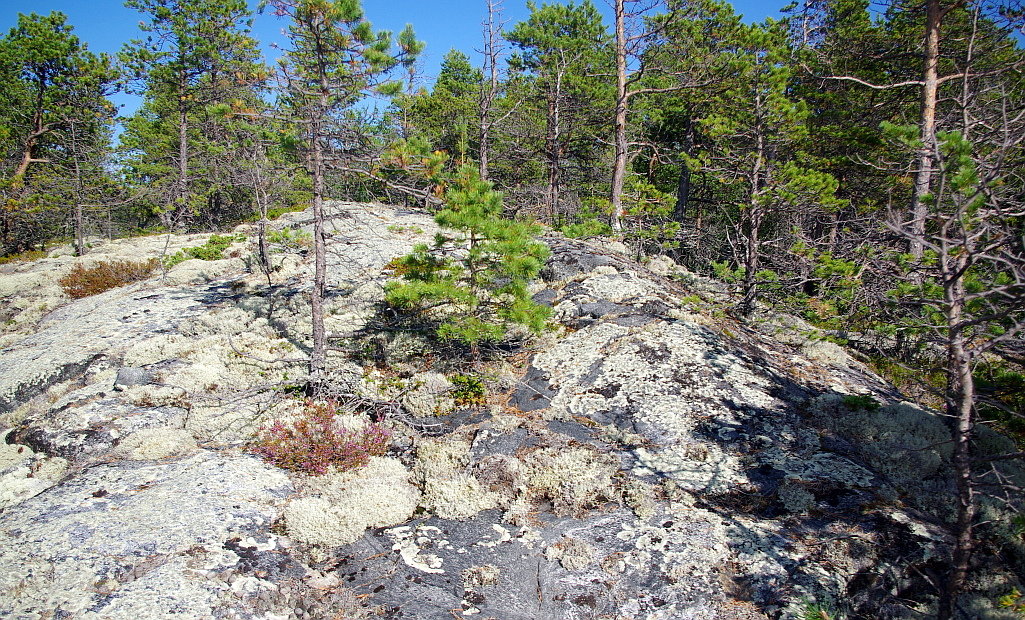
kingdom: Plantae
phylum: Tracheophyta
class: Pinopsida
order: Pinales
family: Pinaceae
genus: Pinus
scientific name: Pinus sylvestris
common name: Scots pine
